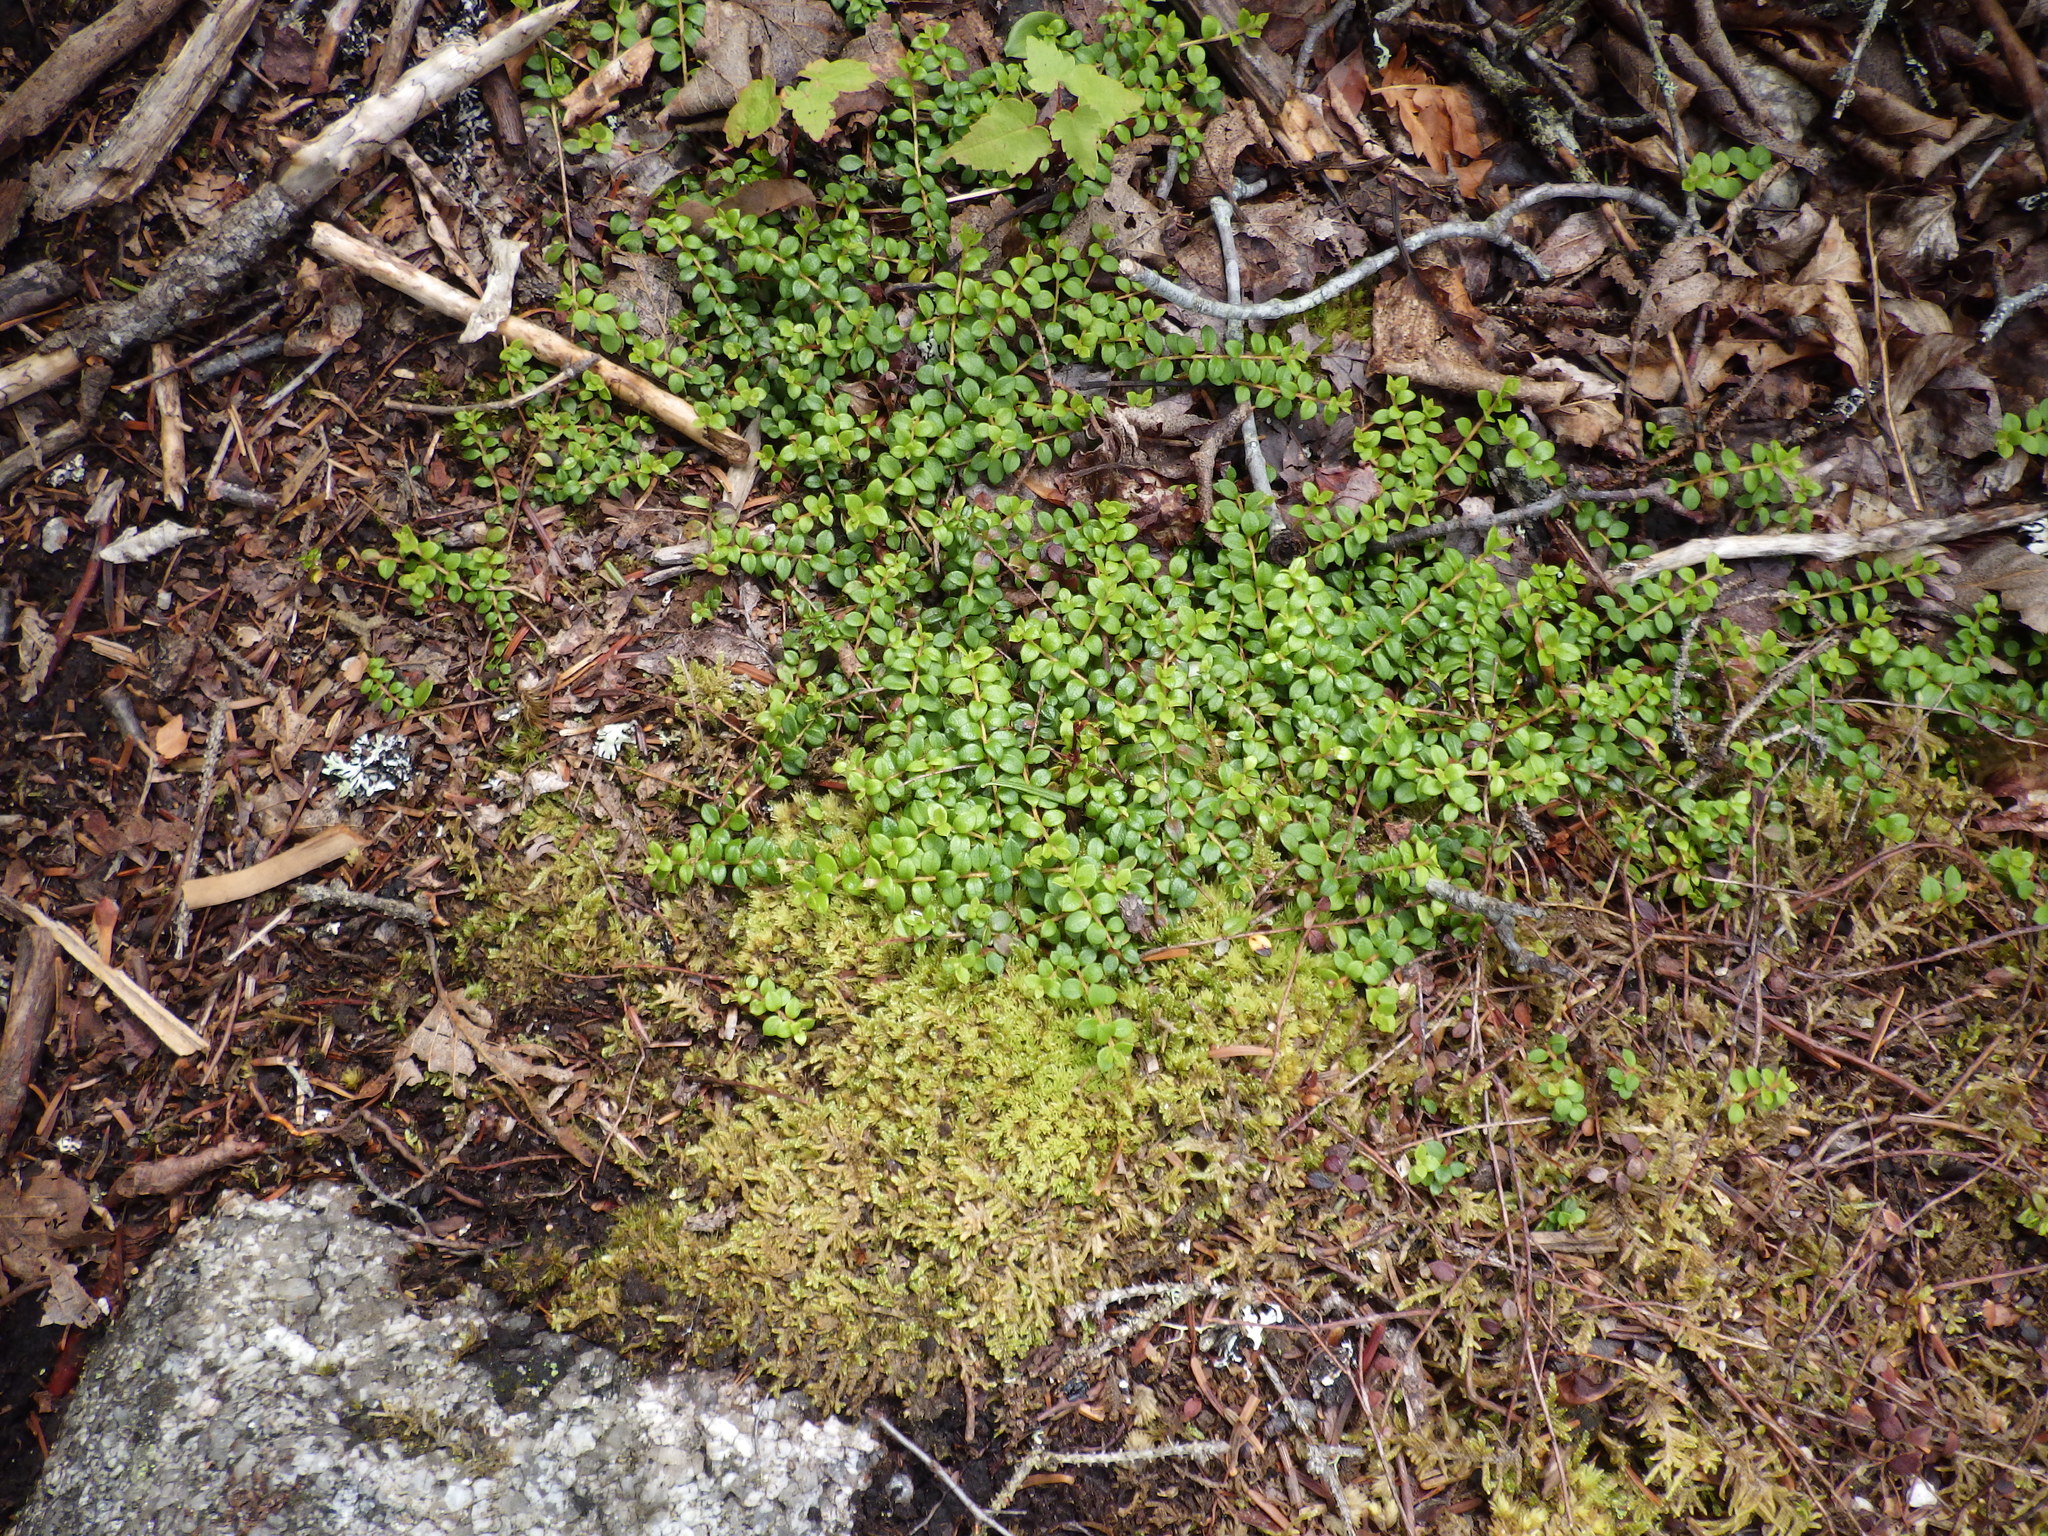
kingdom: Plantae
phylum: Tracheophyta
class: Magnoliopsida
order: Ericales
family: Ericaceae
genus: Gaultheria
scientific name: Gaultheria hispidula
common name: Cancer wintergreen
